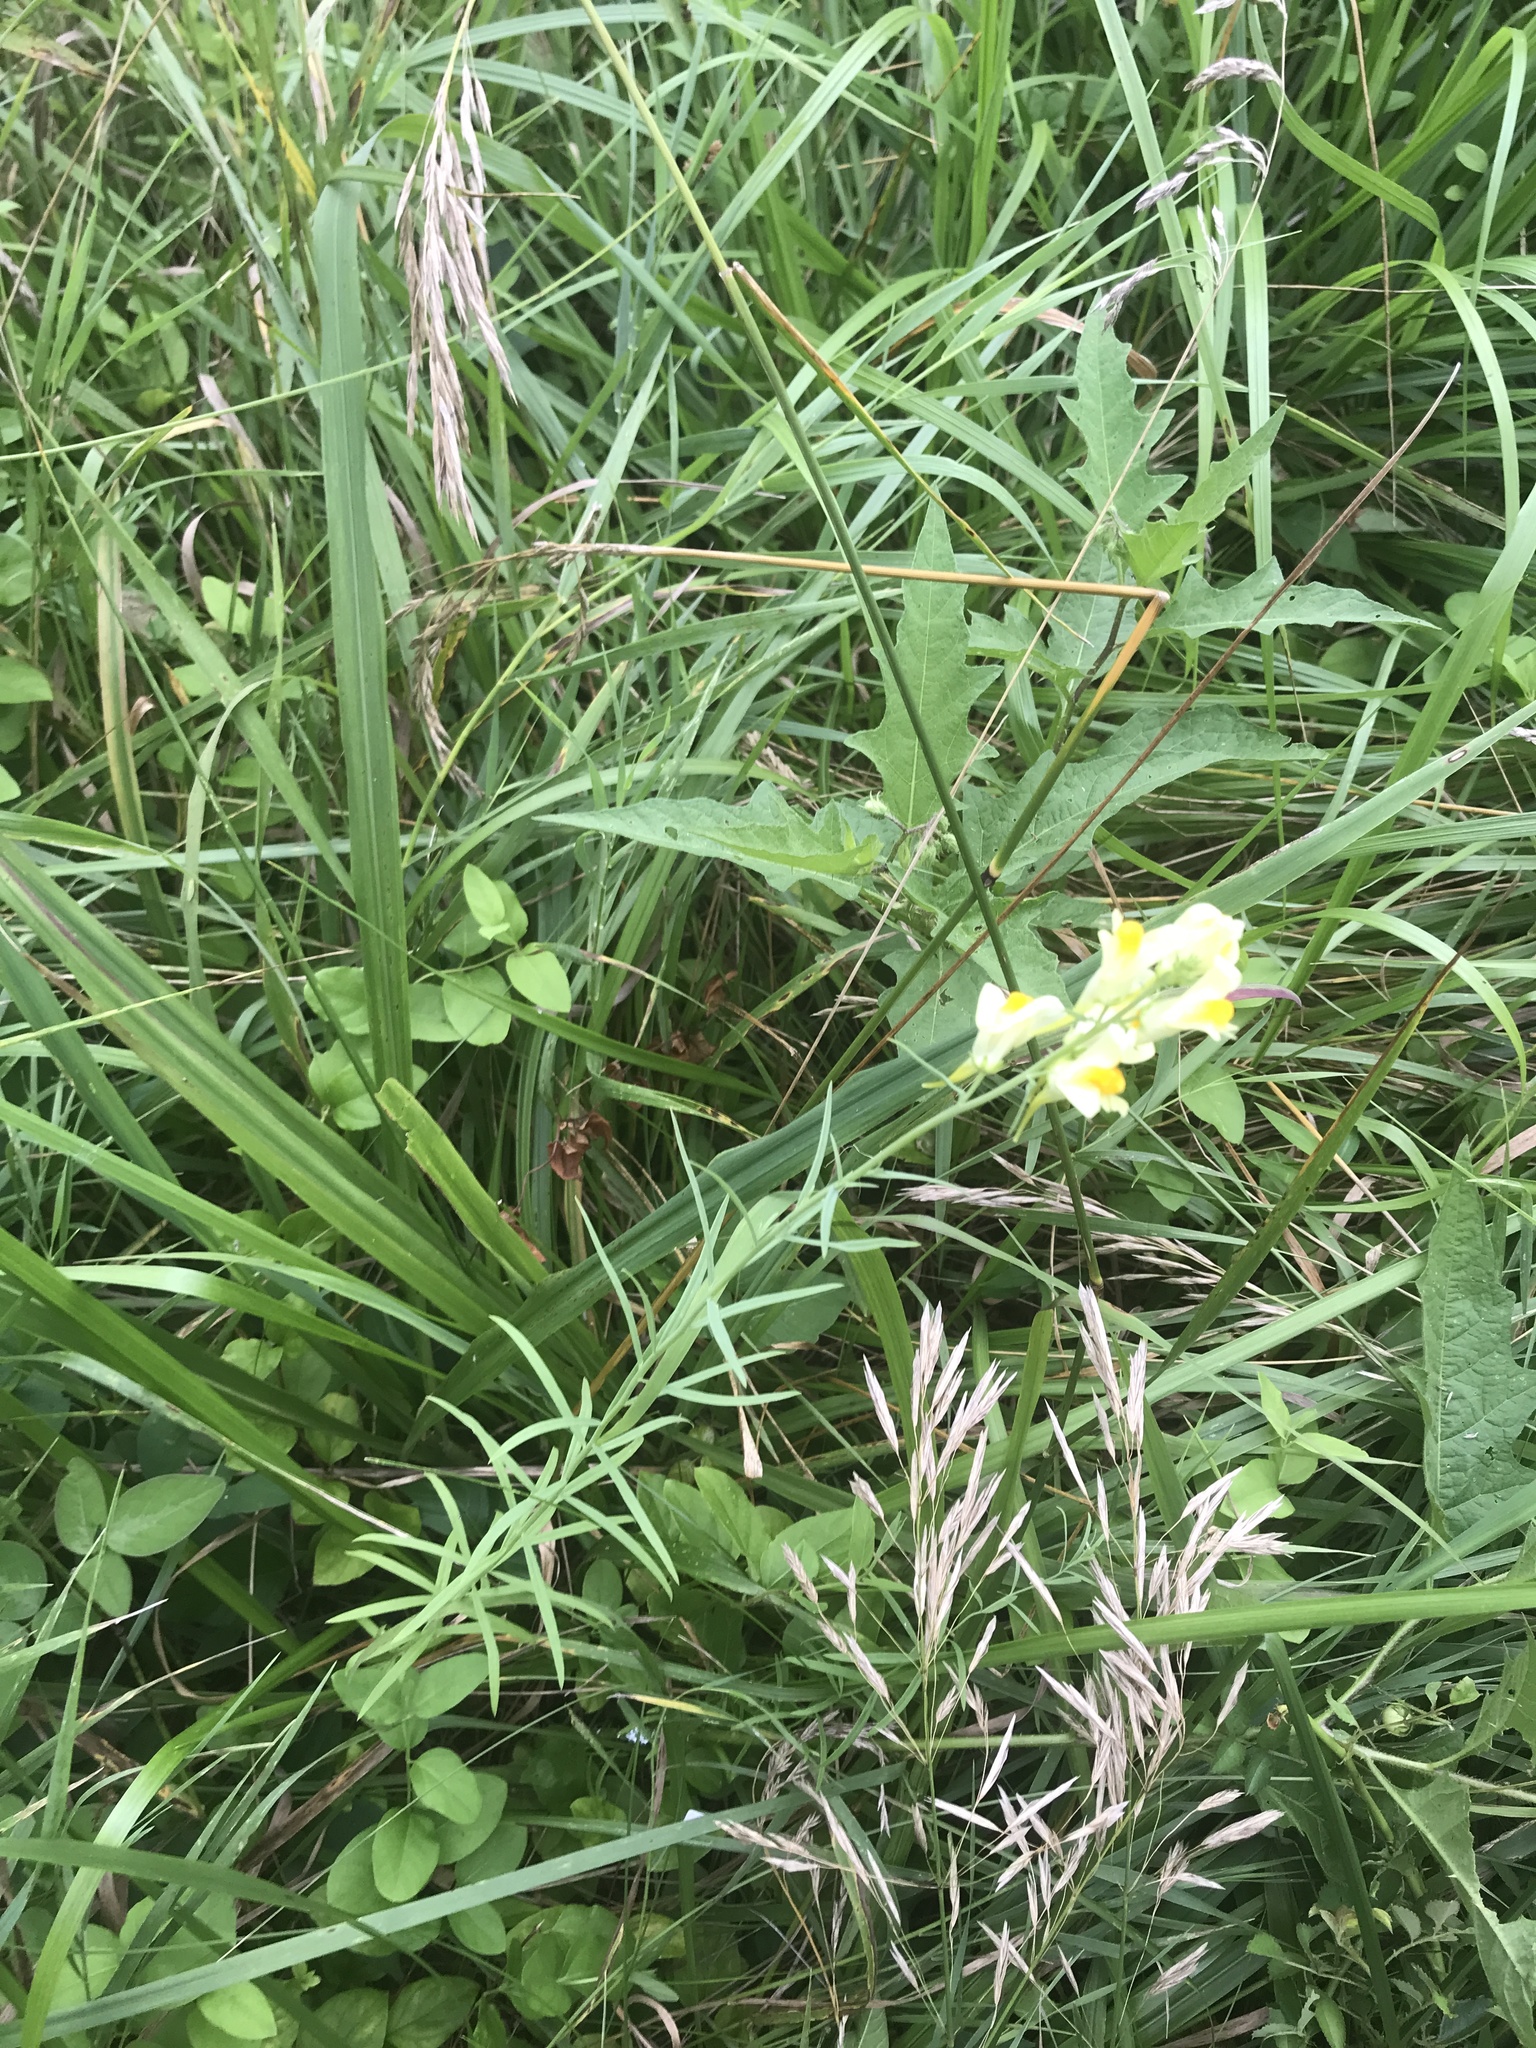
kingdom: Plantae
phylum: Tracheophyta
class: Magnoliopsida
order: Lamiales
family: Plantaginaceae
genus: Linaria
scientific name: Linaria vulgaris
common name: Butter and eggs
